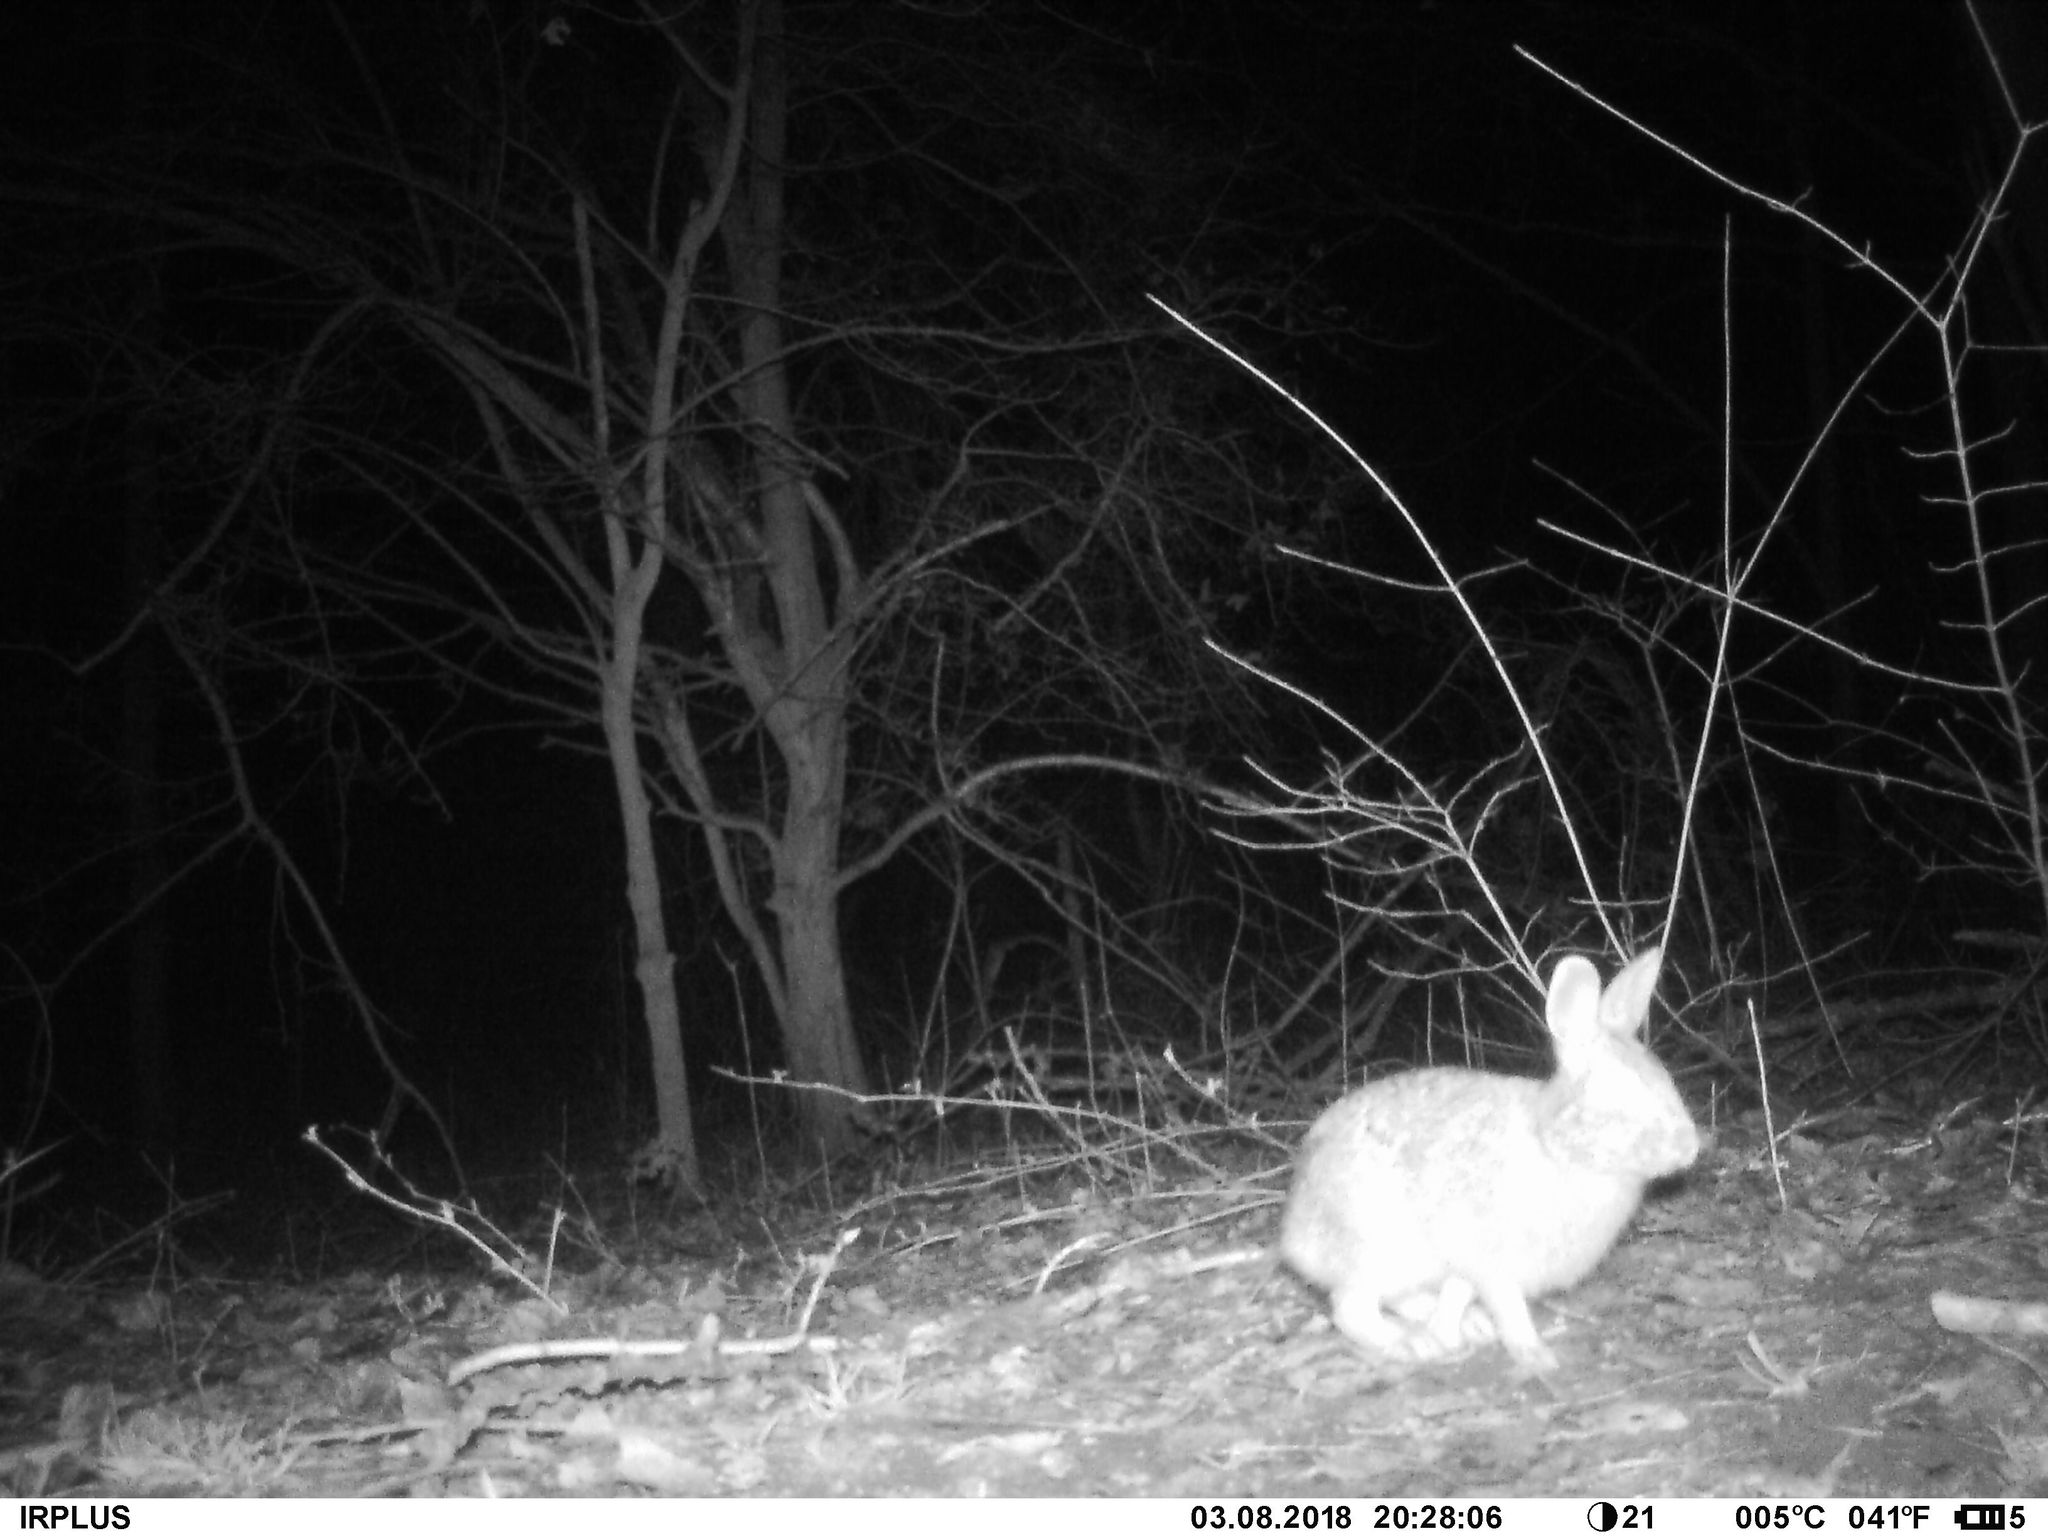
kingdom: Animalia
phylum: Chordata
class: Mammalia
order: Lagomorpha
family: Leporidae
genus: Sylvilagus
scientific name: Sylvilagus floridanus
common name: Eastern cottontail
